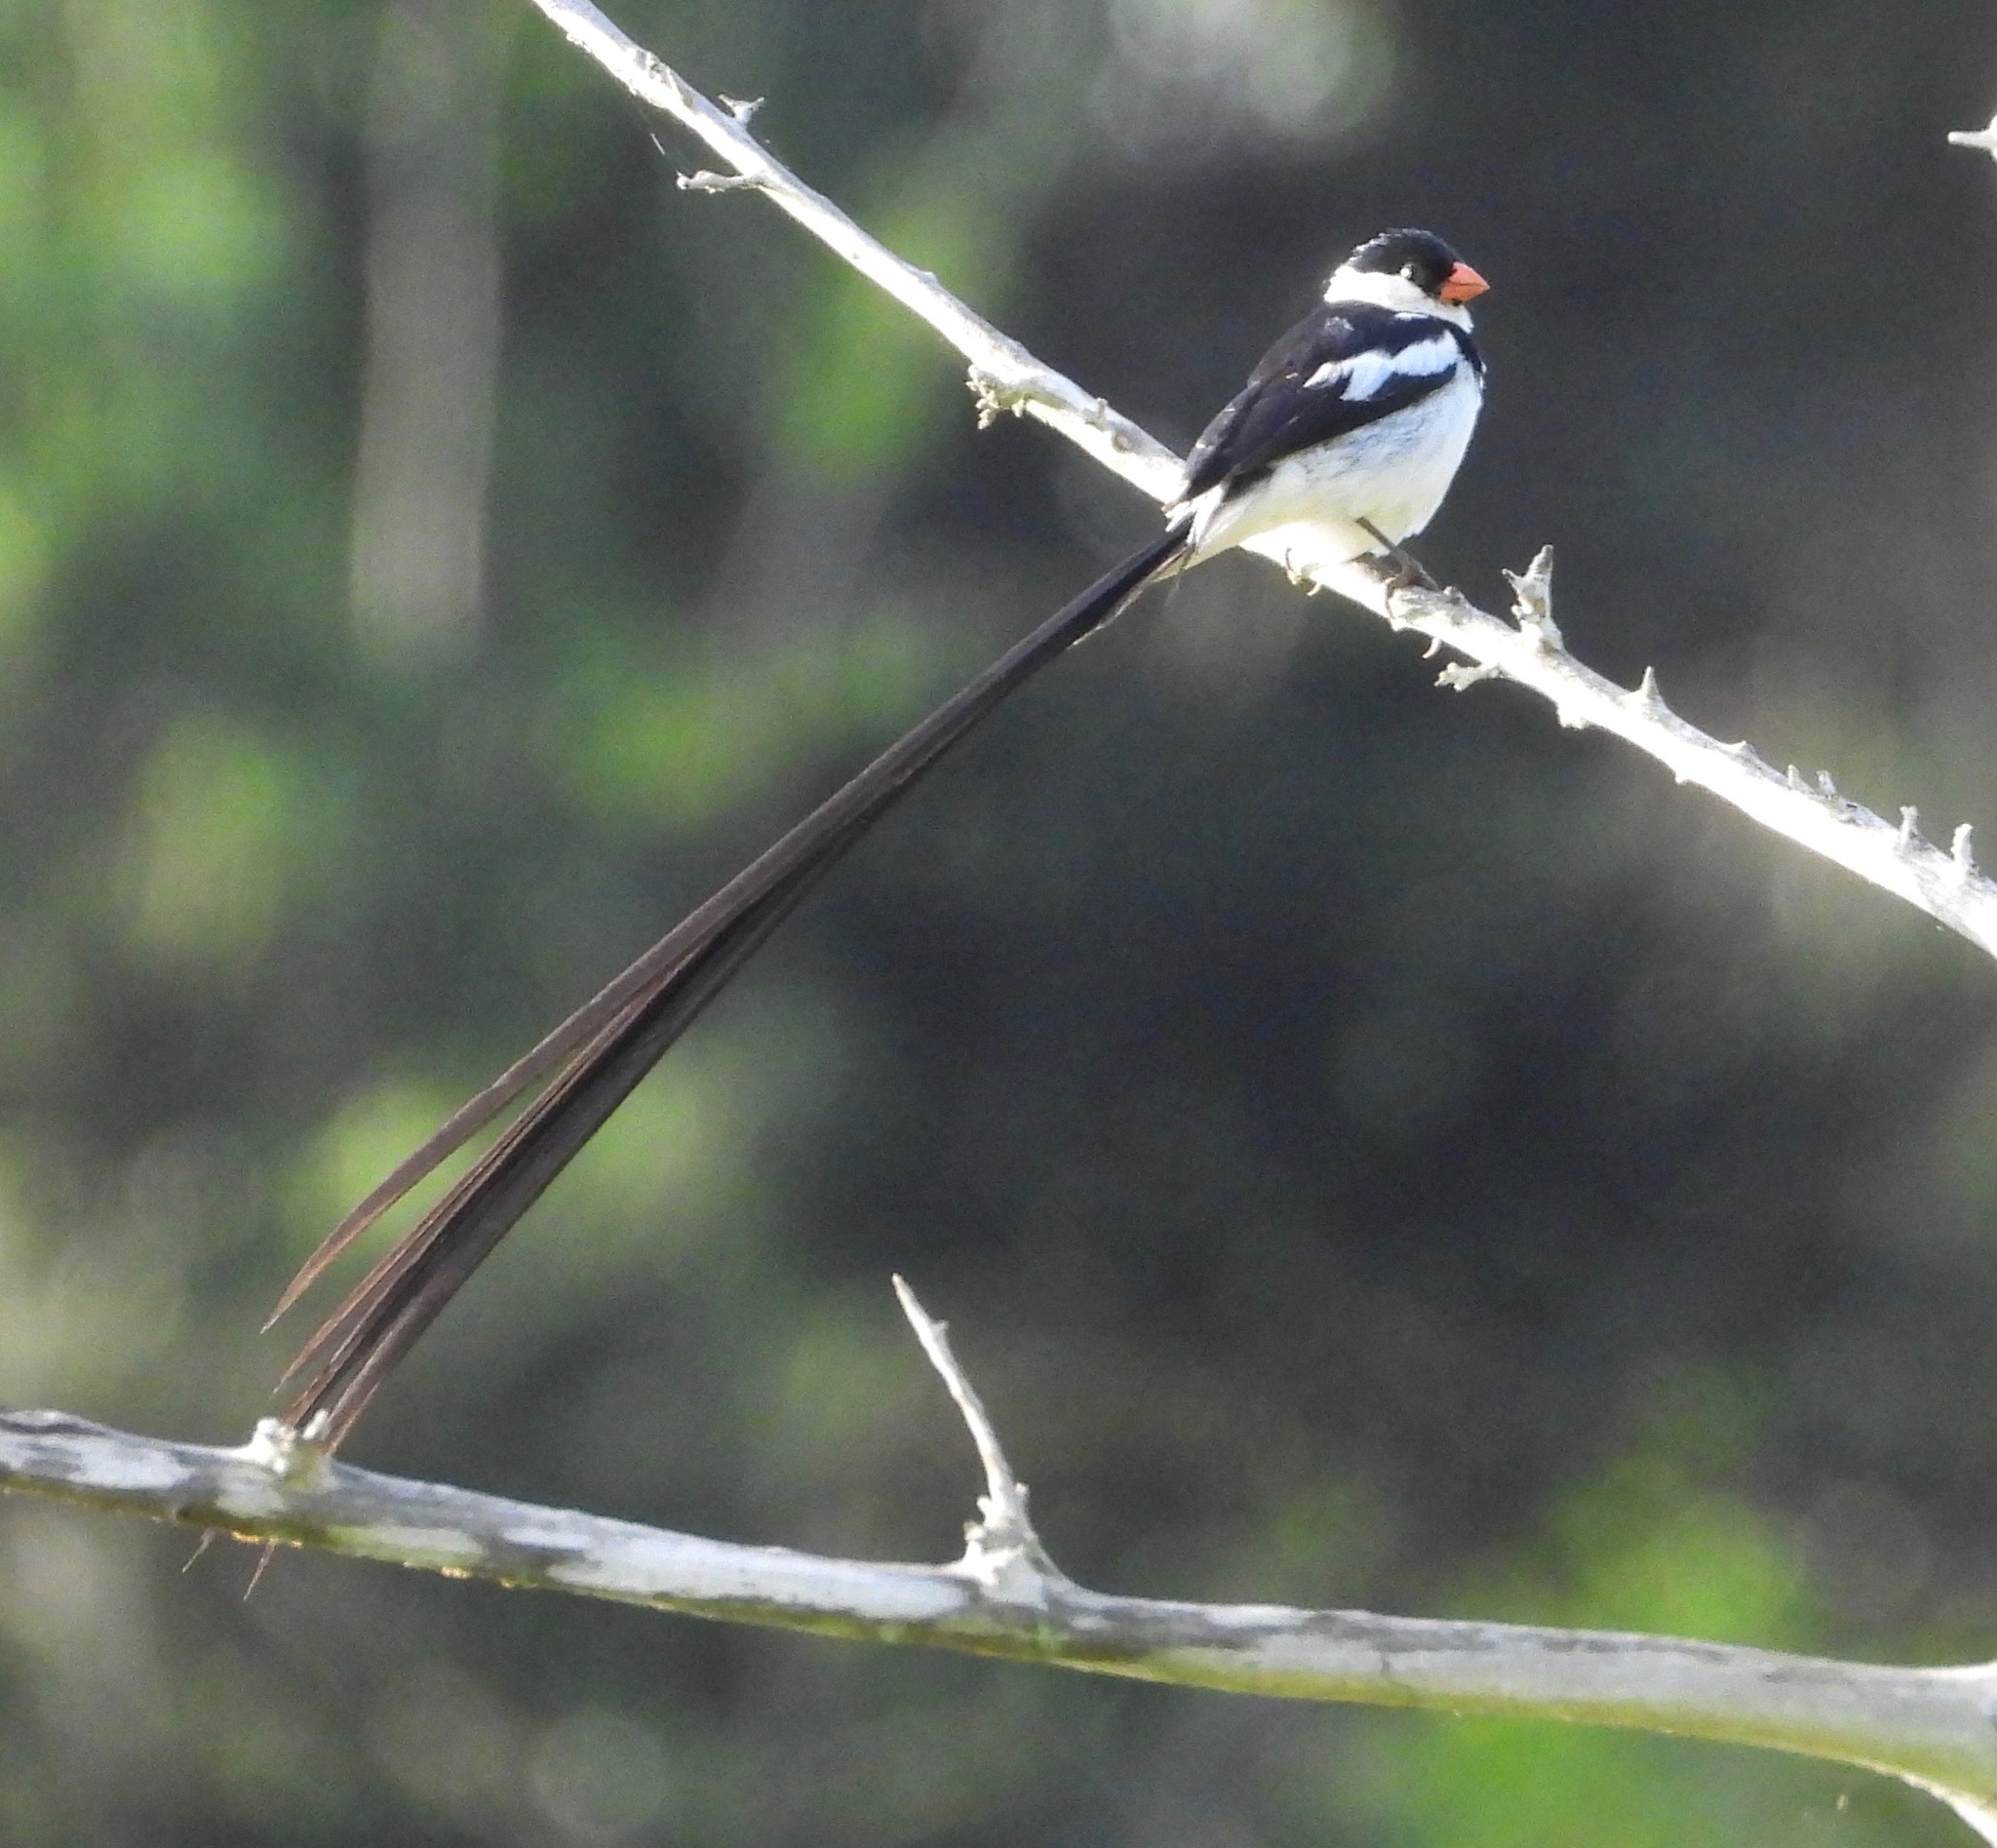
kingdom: Animalia
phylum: Chordata
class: Aves
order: Passeriformes
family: Viduidae
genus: Vidua
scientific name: Vidua macroura
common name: Pin-tailed whydah
